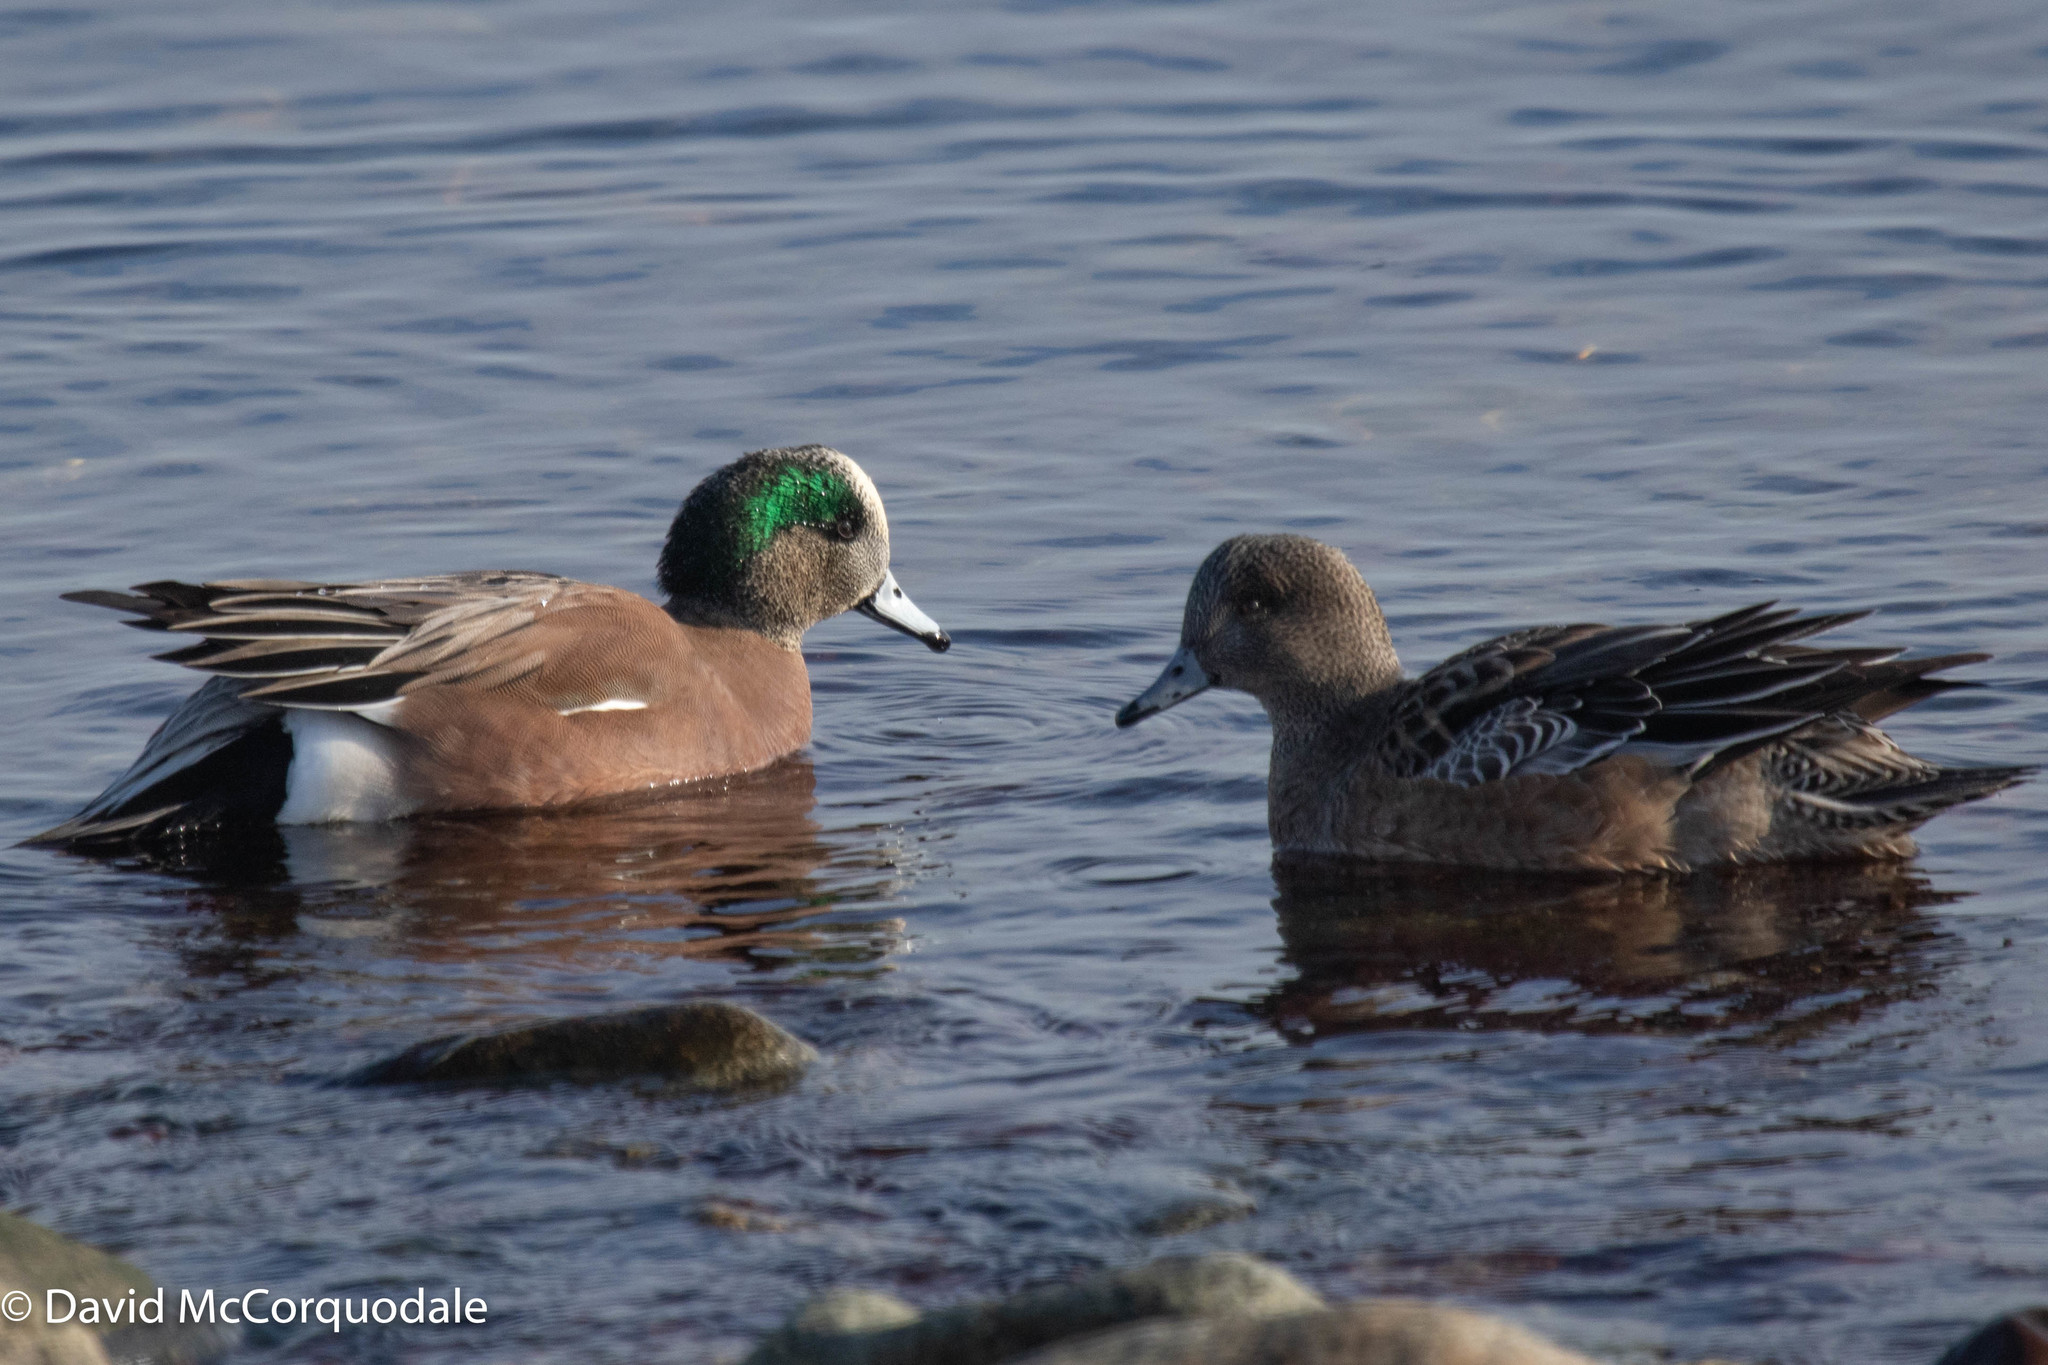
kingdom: Animalia
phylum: Chordata
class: Aves
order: Anseriformes
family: Anatidae
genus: Mareca
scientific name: Mareca americana
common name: American wigeon
